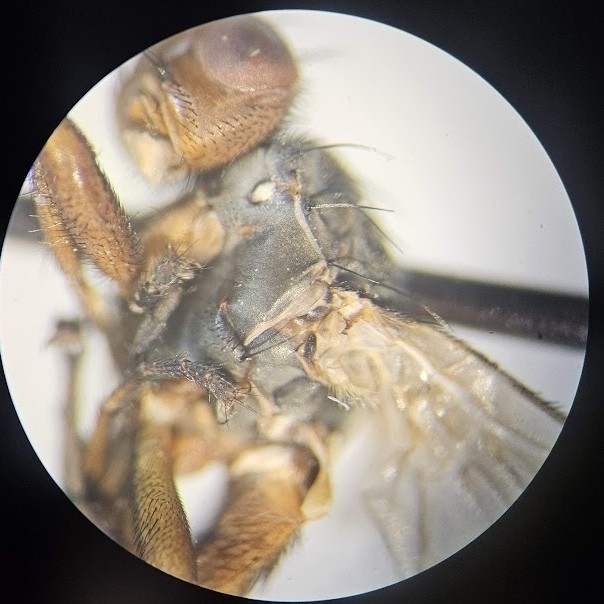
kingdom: Animalia
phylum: Arthropoda
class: Insecta
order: Diptera
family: Heleomyzidae
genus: Heleomyza
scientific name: Heleomyza serrata
